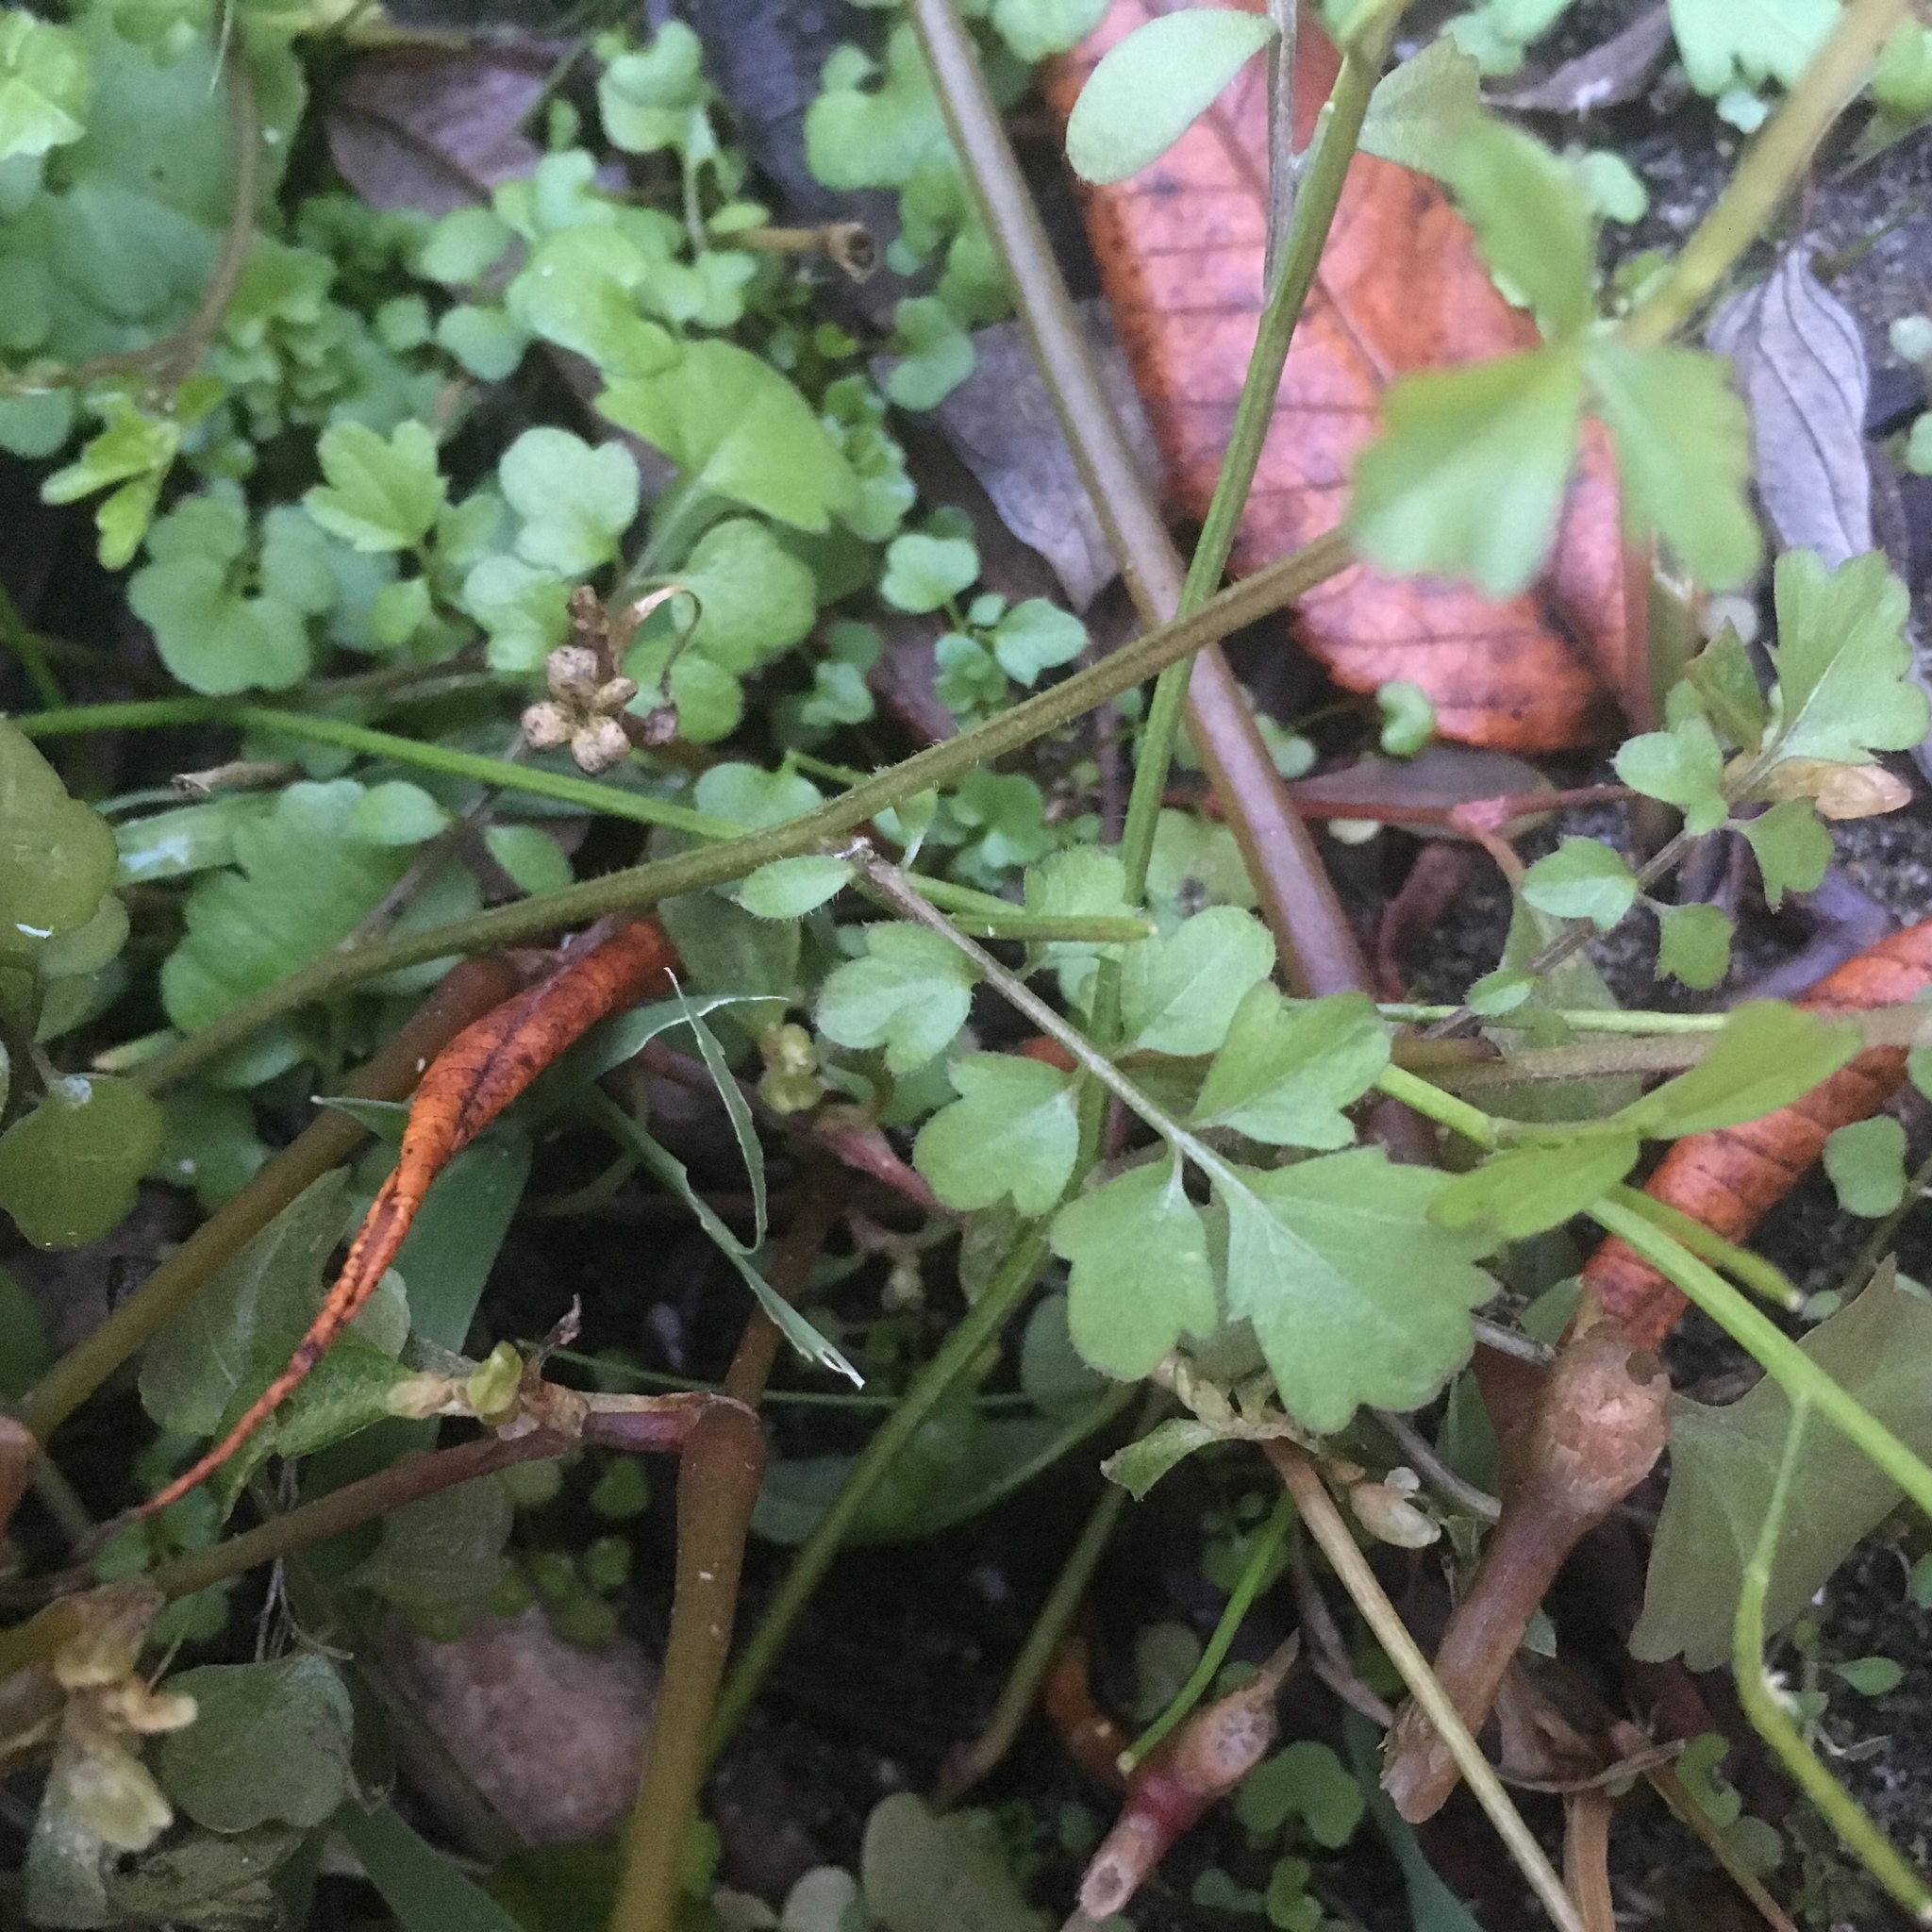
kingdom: Plantae
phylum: Tracheophyta
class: Magnoliopsida
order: Brassicales
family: Brassicaceae
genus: Cardamine
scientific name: Cardamine occulta
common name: Asian wavy bittercress
